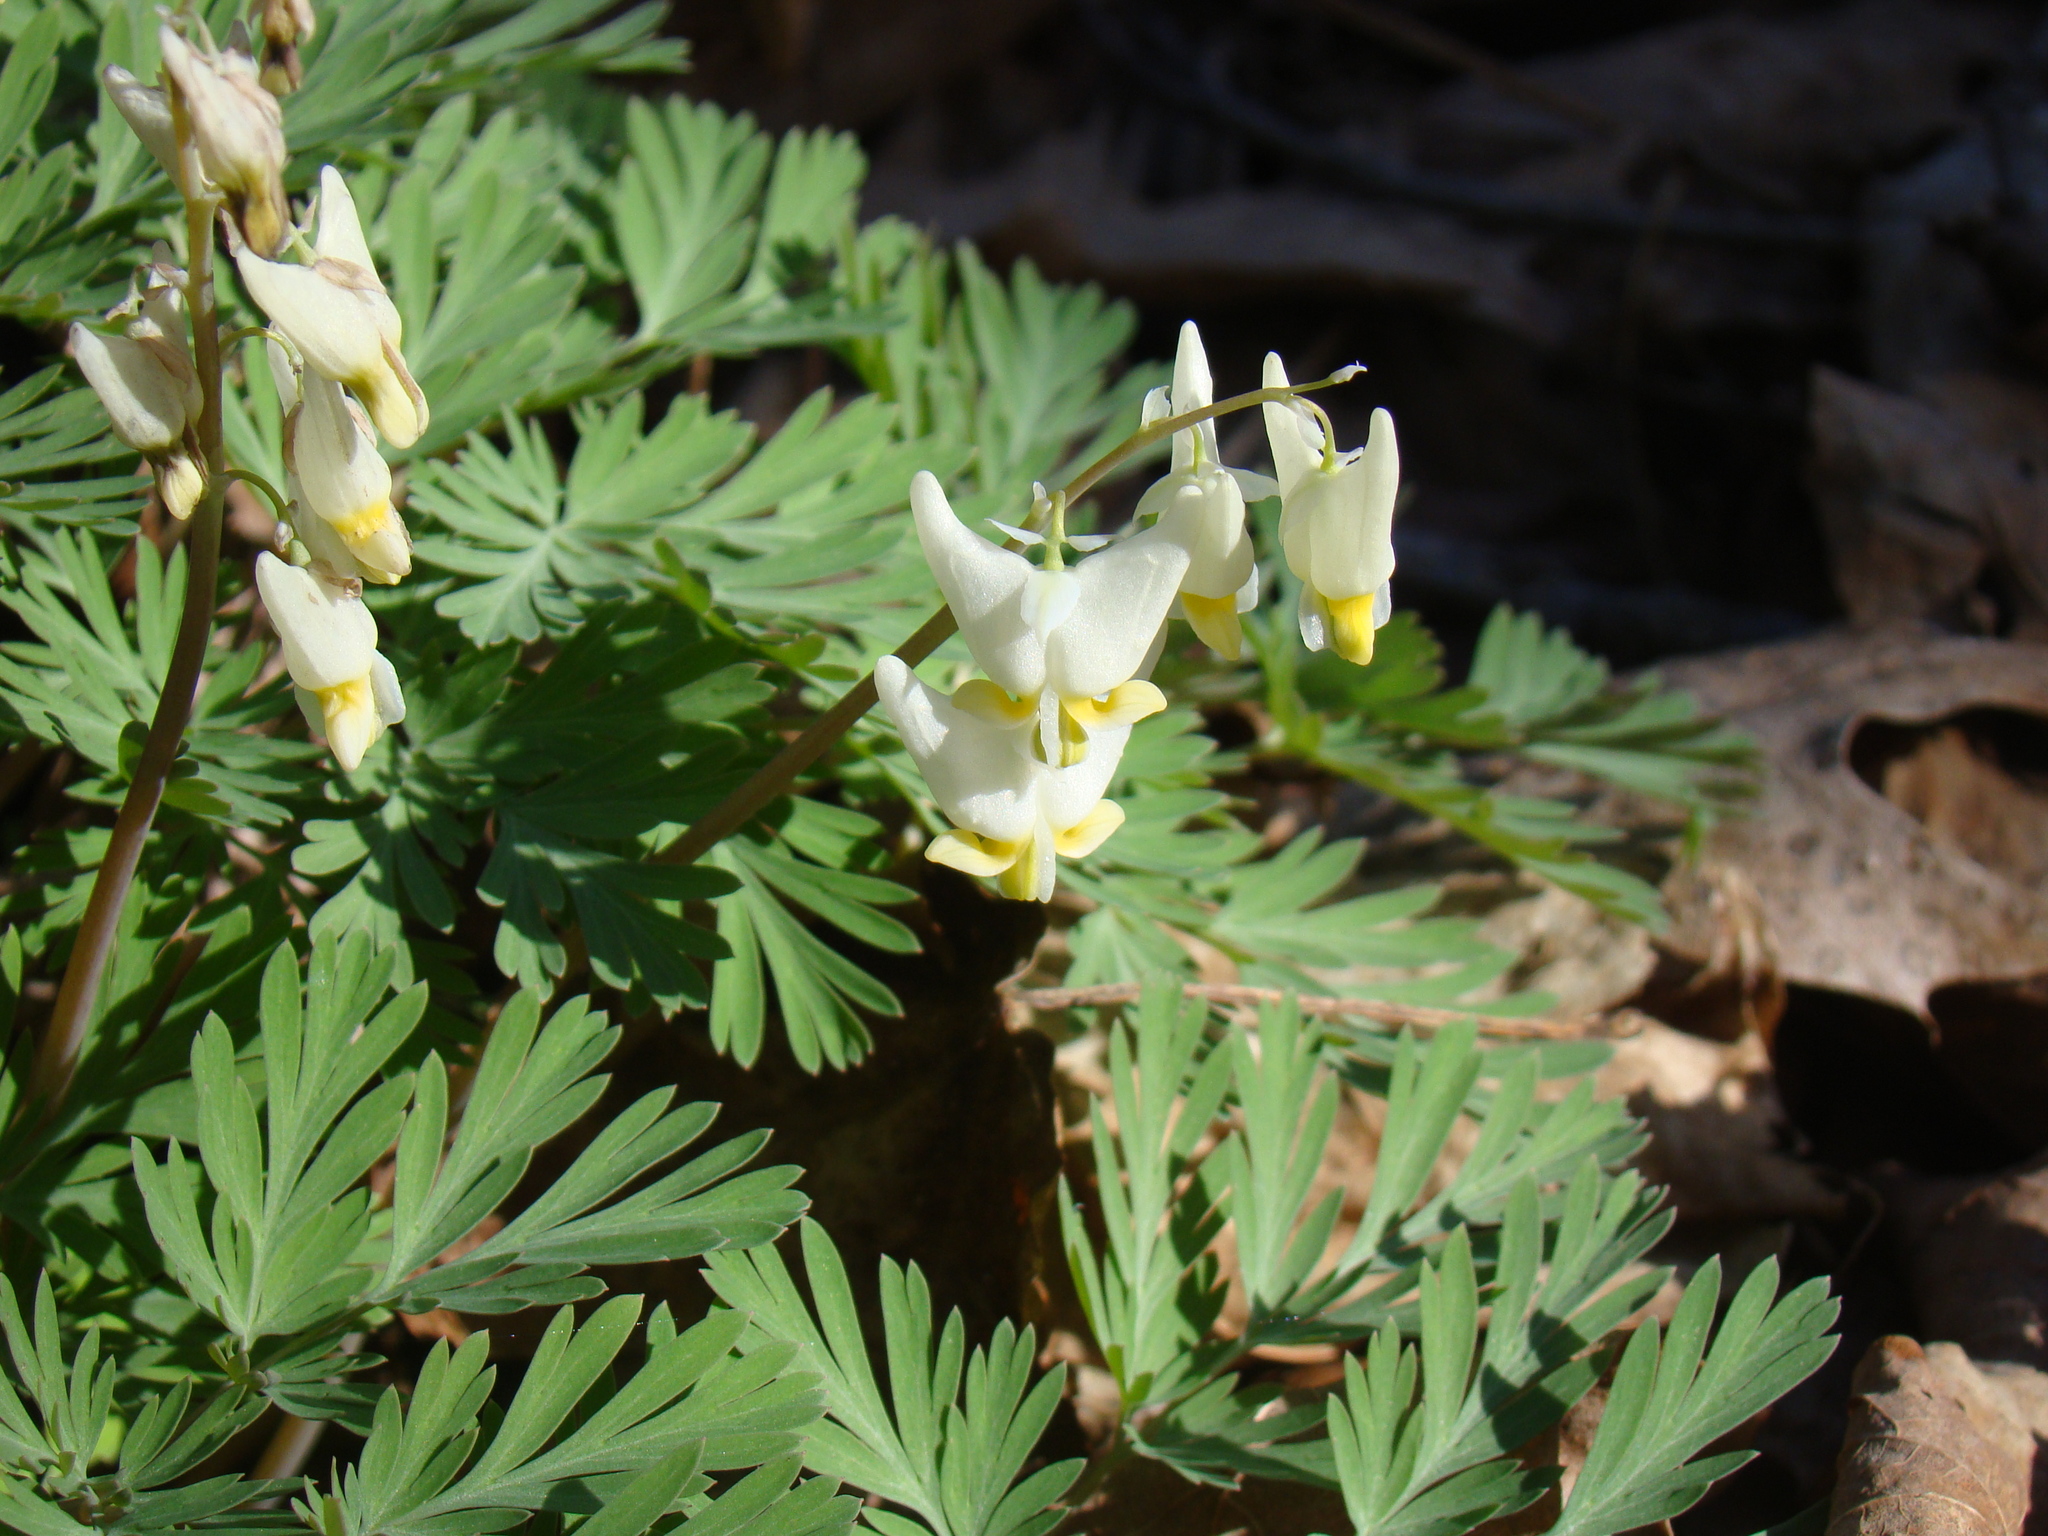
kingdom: Plantae
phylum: Tracheophyta
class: Magnoliopsida
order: Ranunculales
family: Papaveraceae
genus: Dicentra
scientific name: Dicentra cucullaria
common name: Dutchman's breeches
